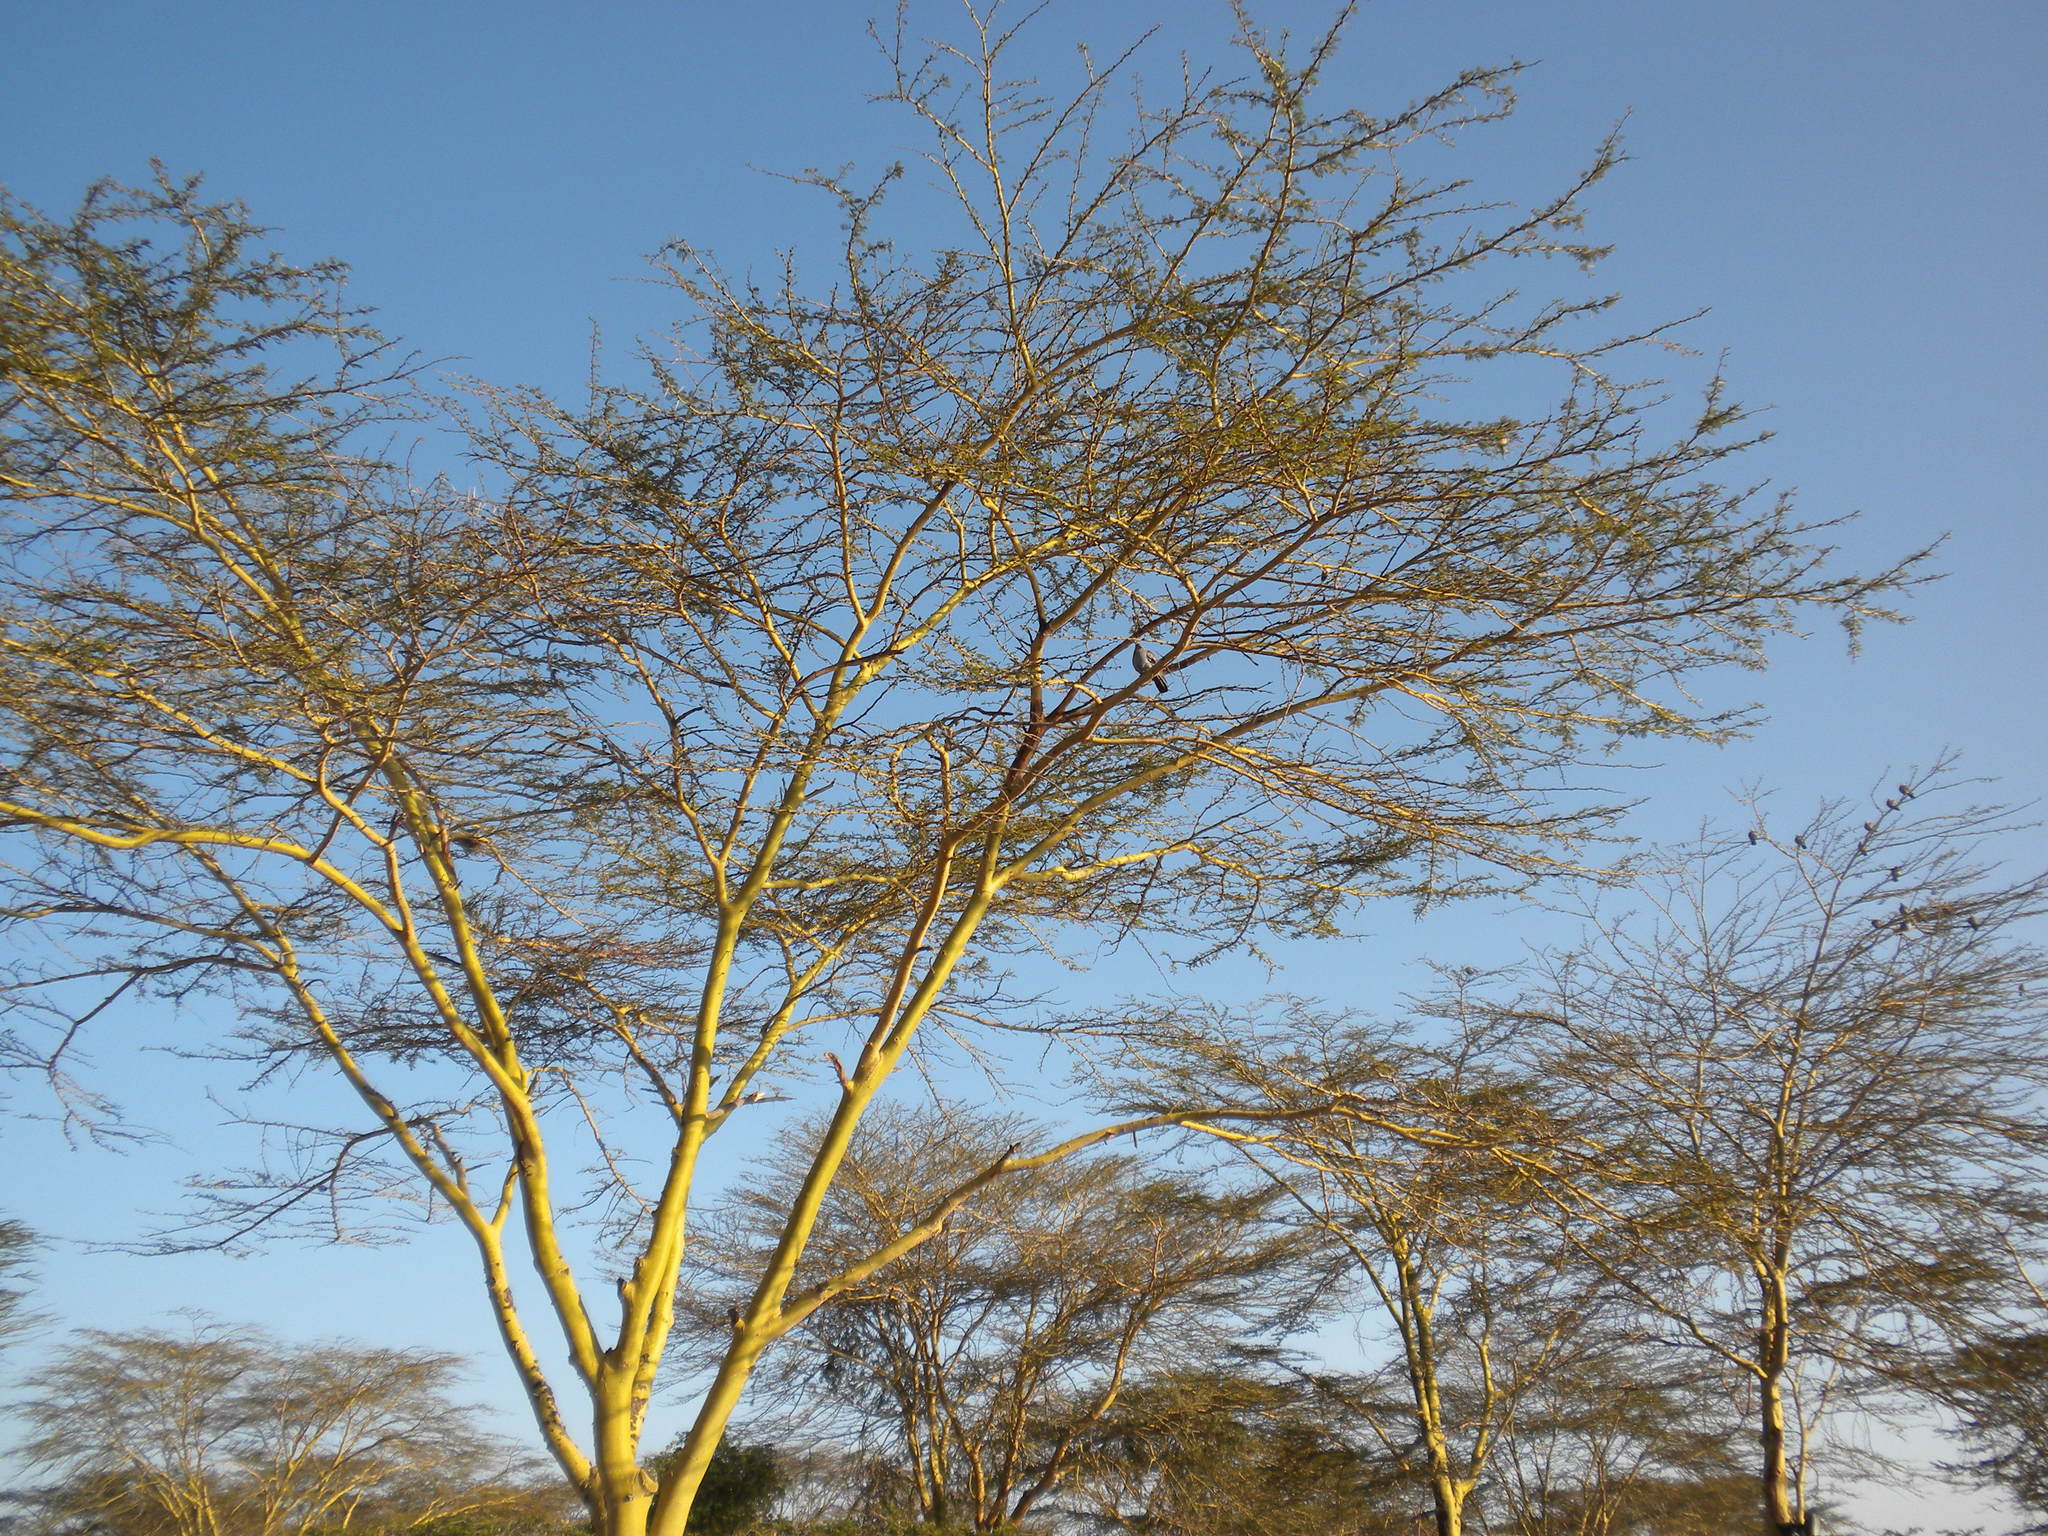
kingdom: Plantae
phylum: Tracheophyta
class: Magnoliopsida
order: Fabales
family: Fabaceae
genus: Vachellia
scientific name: Vachellia xanthophloea
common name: Fever tree
